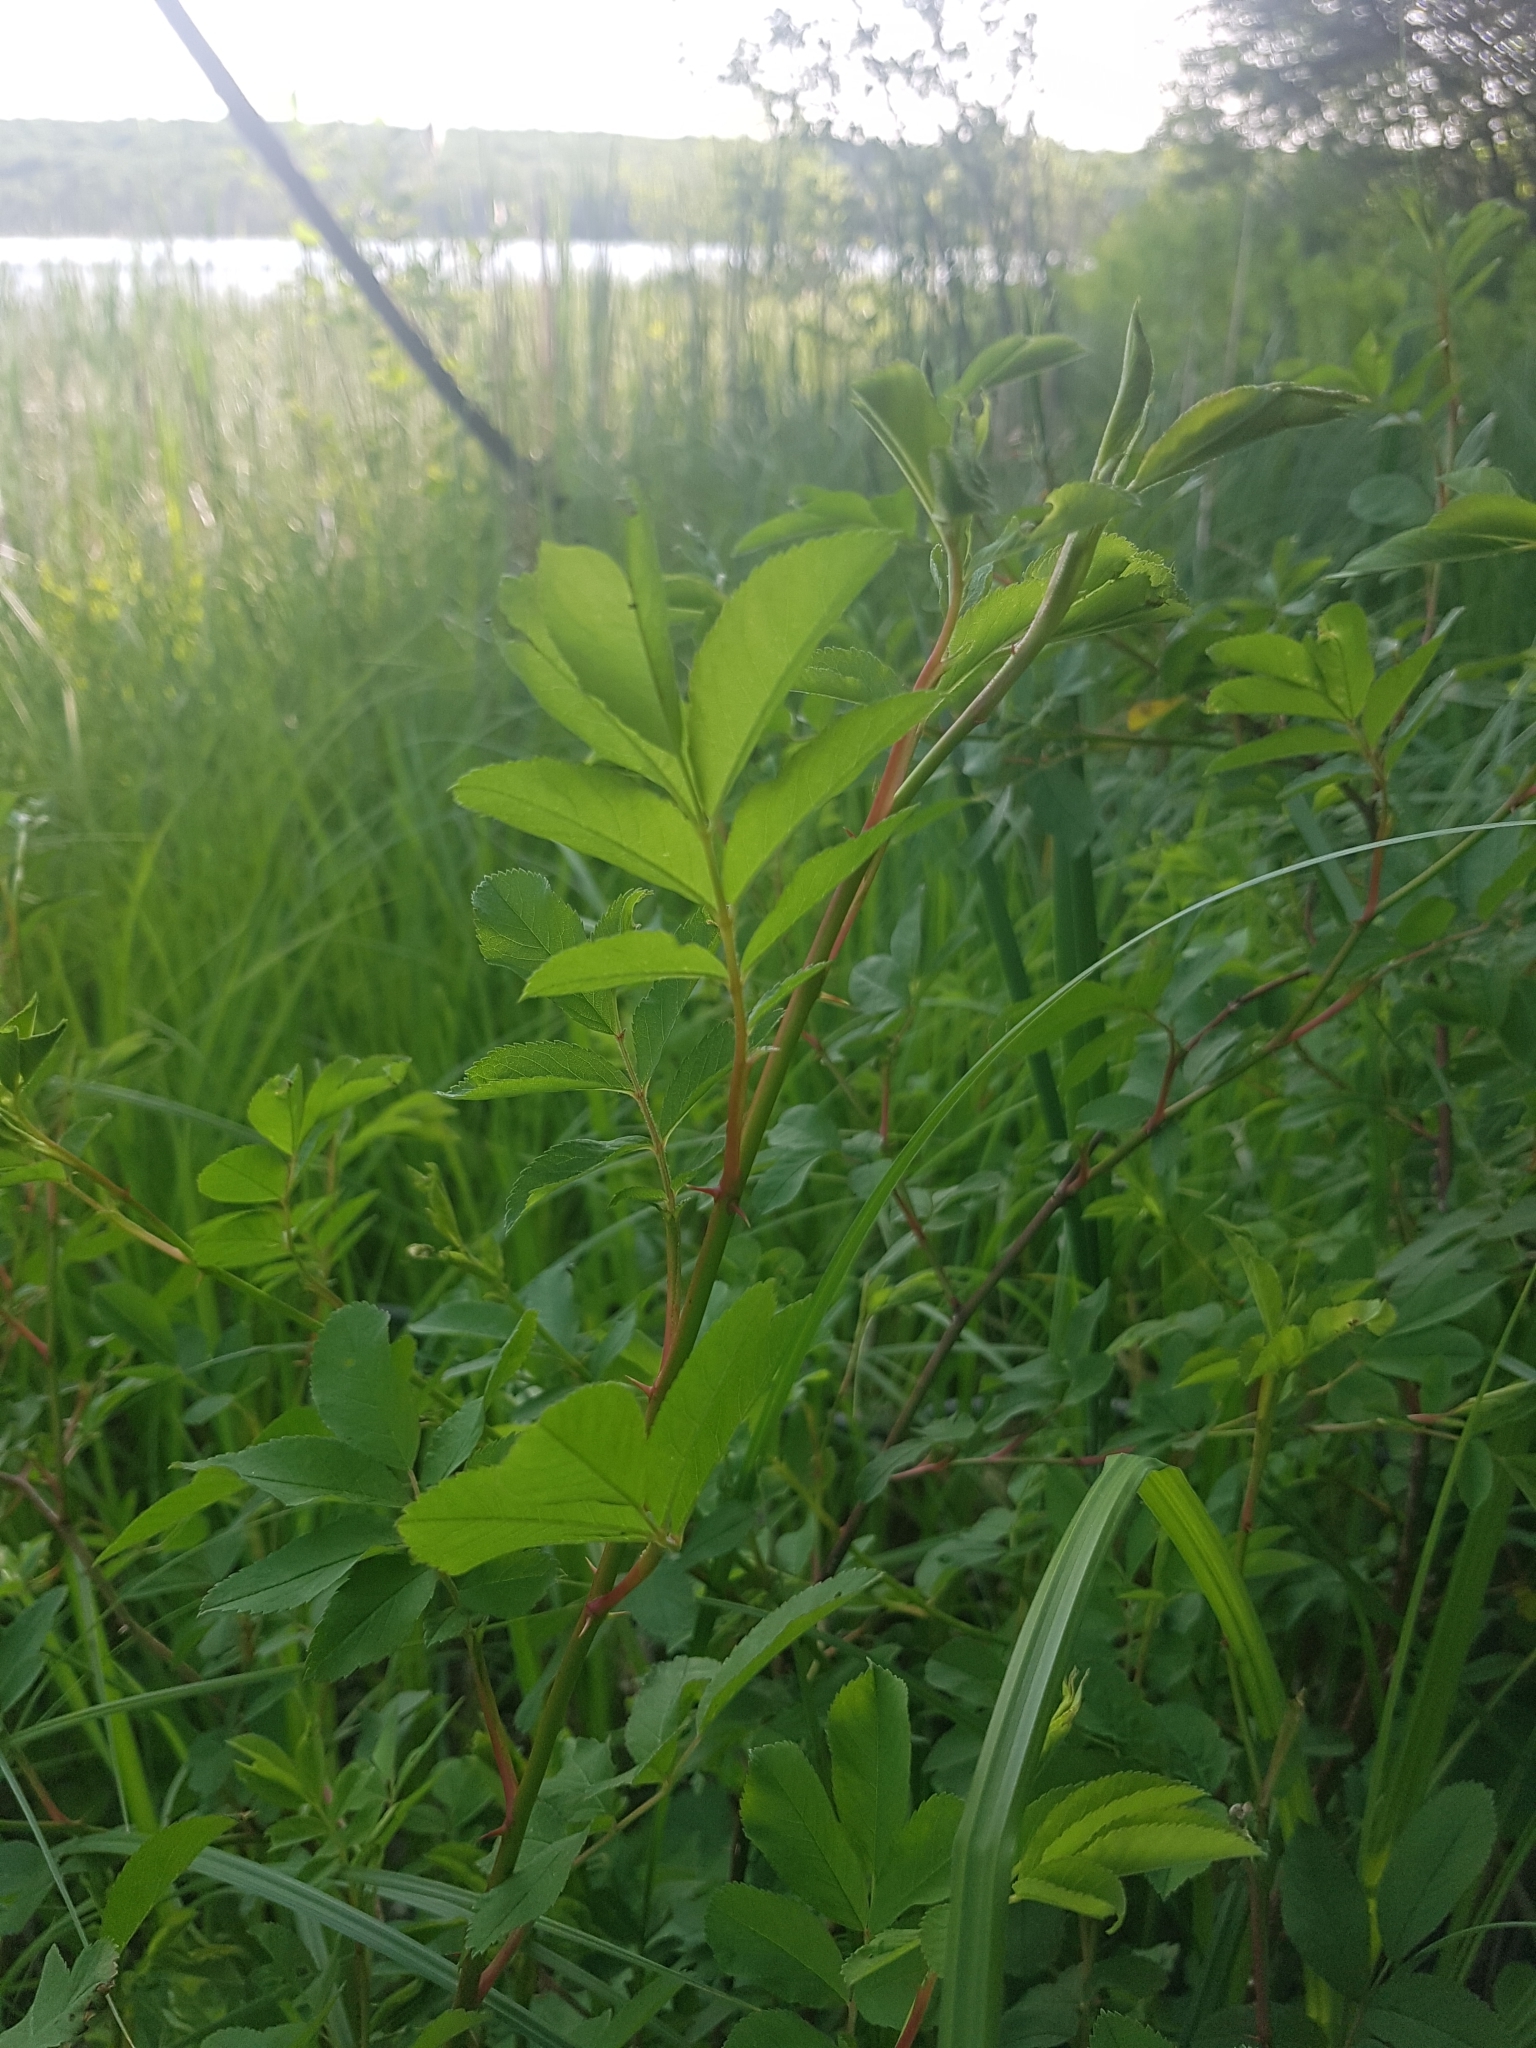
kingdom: Plantae
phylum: Tracheophyta
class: Magnoliopsida
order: Rosales
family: Rosaceae
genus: Rosa
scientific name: Rosa palustris
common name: Swamp rose
